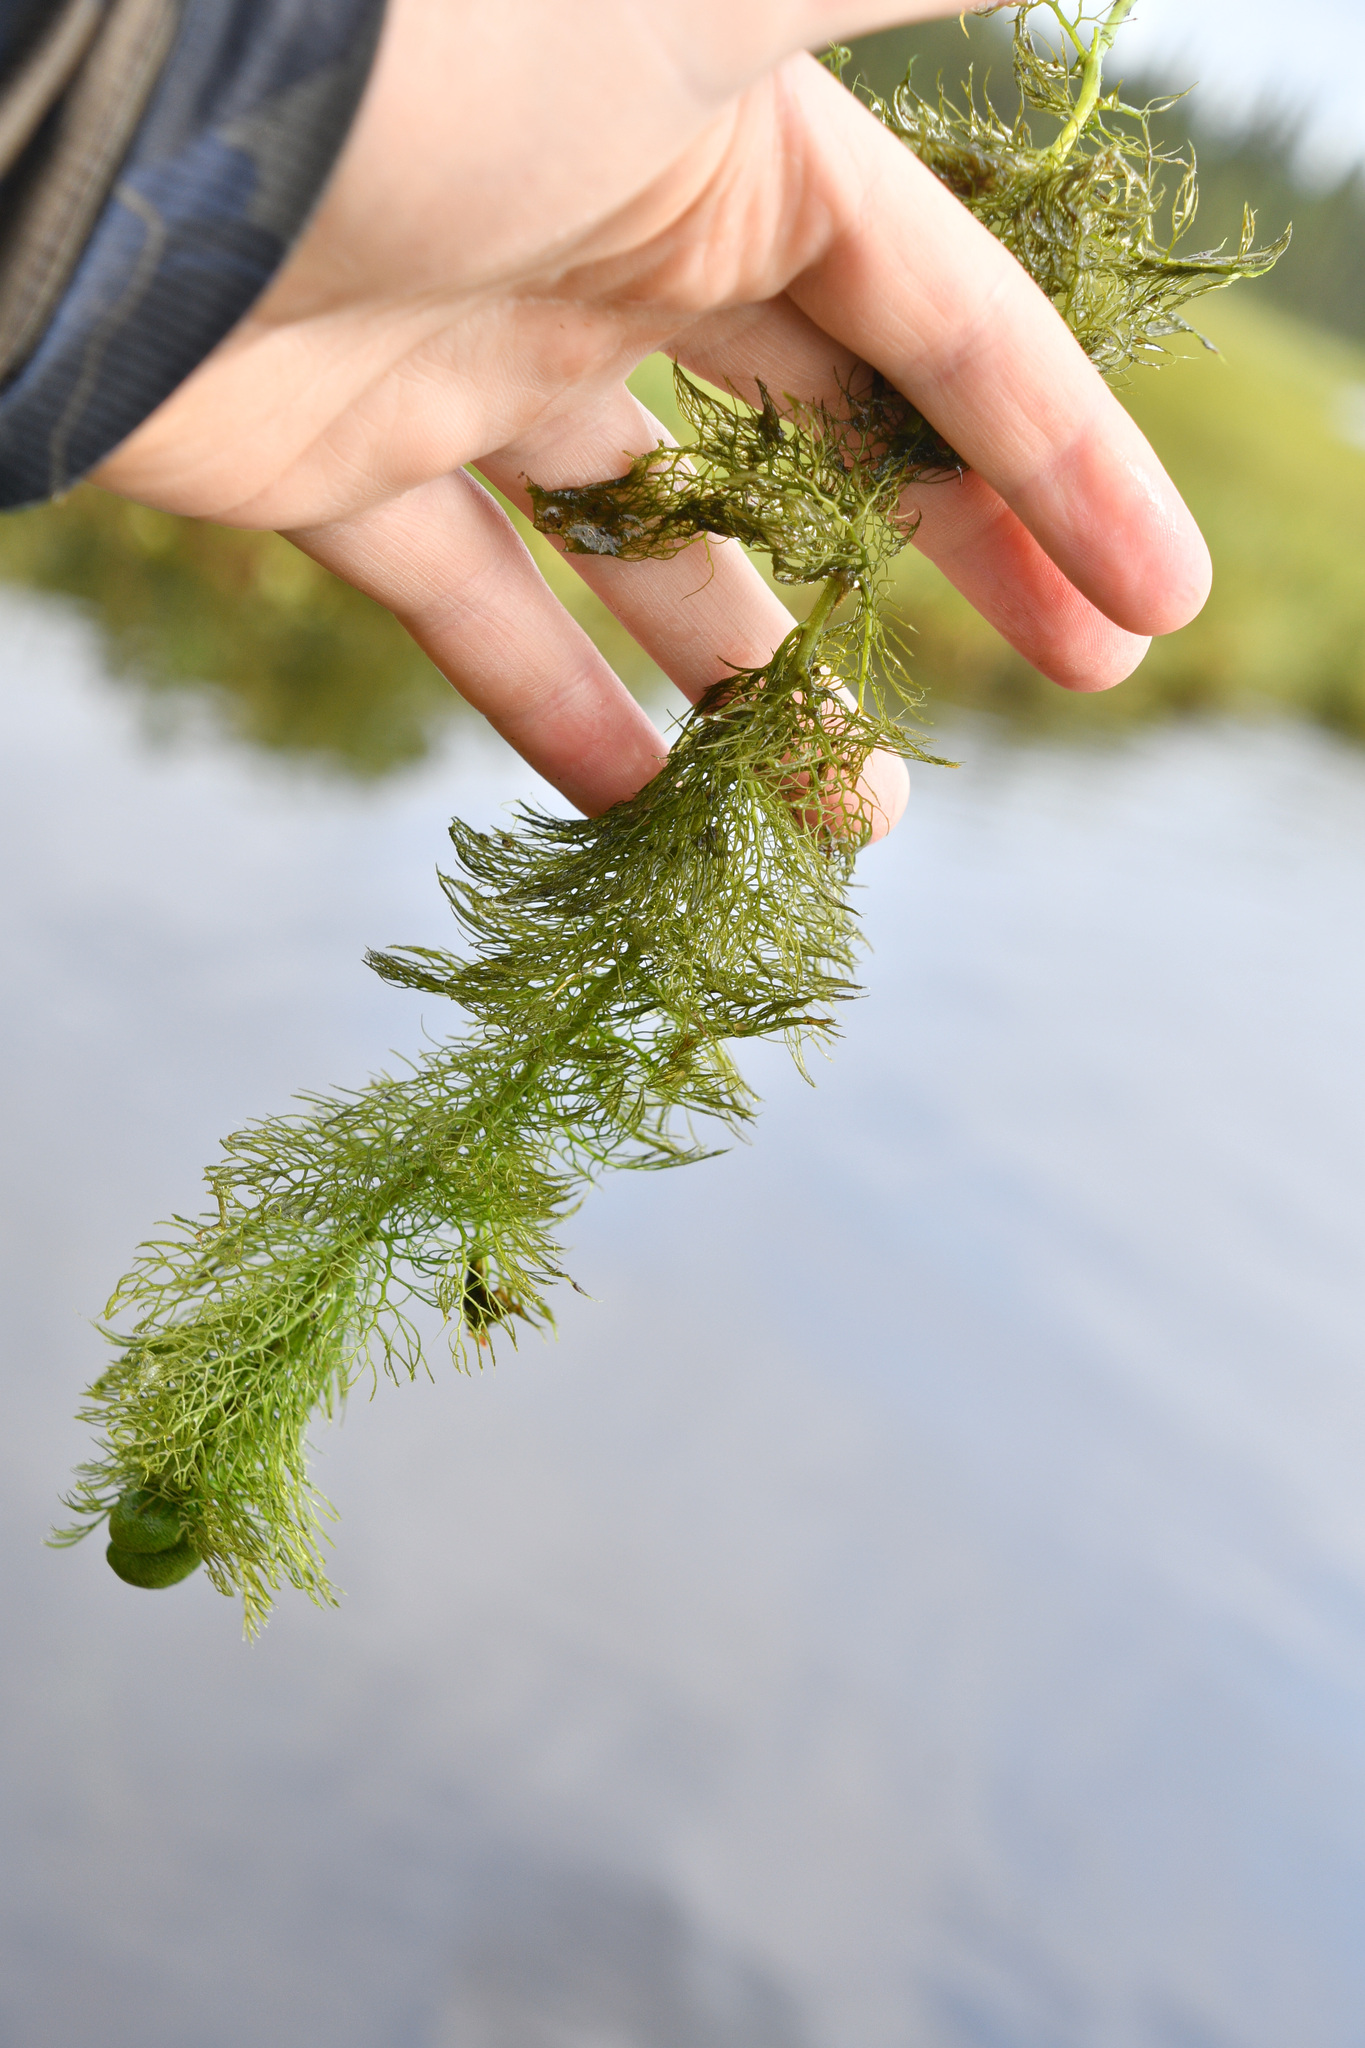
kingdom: Plantae
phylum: Tracheophyta
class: Magnoliopsida
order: Lamiales
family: Lentibulariaceae
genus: Utricularia
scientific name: Utricularia macrorhiza
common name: Common bladderwort
